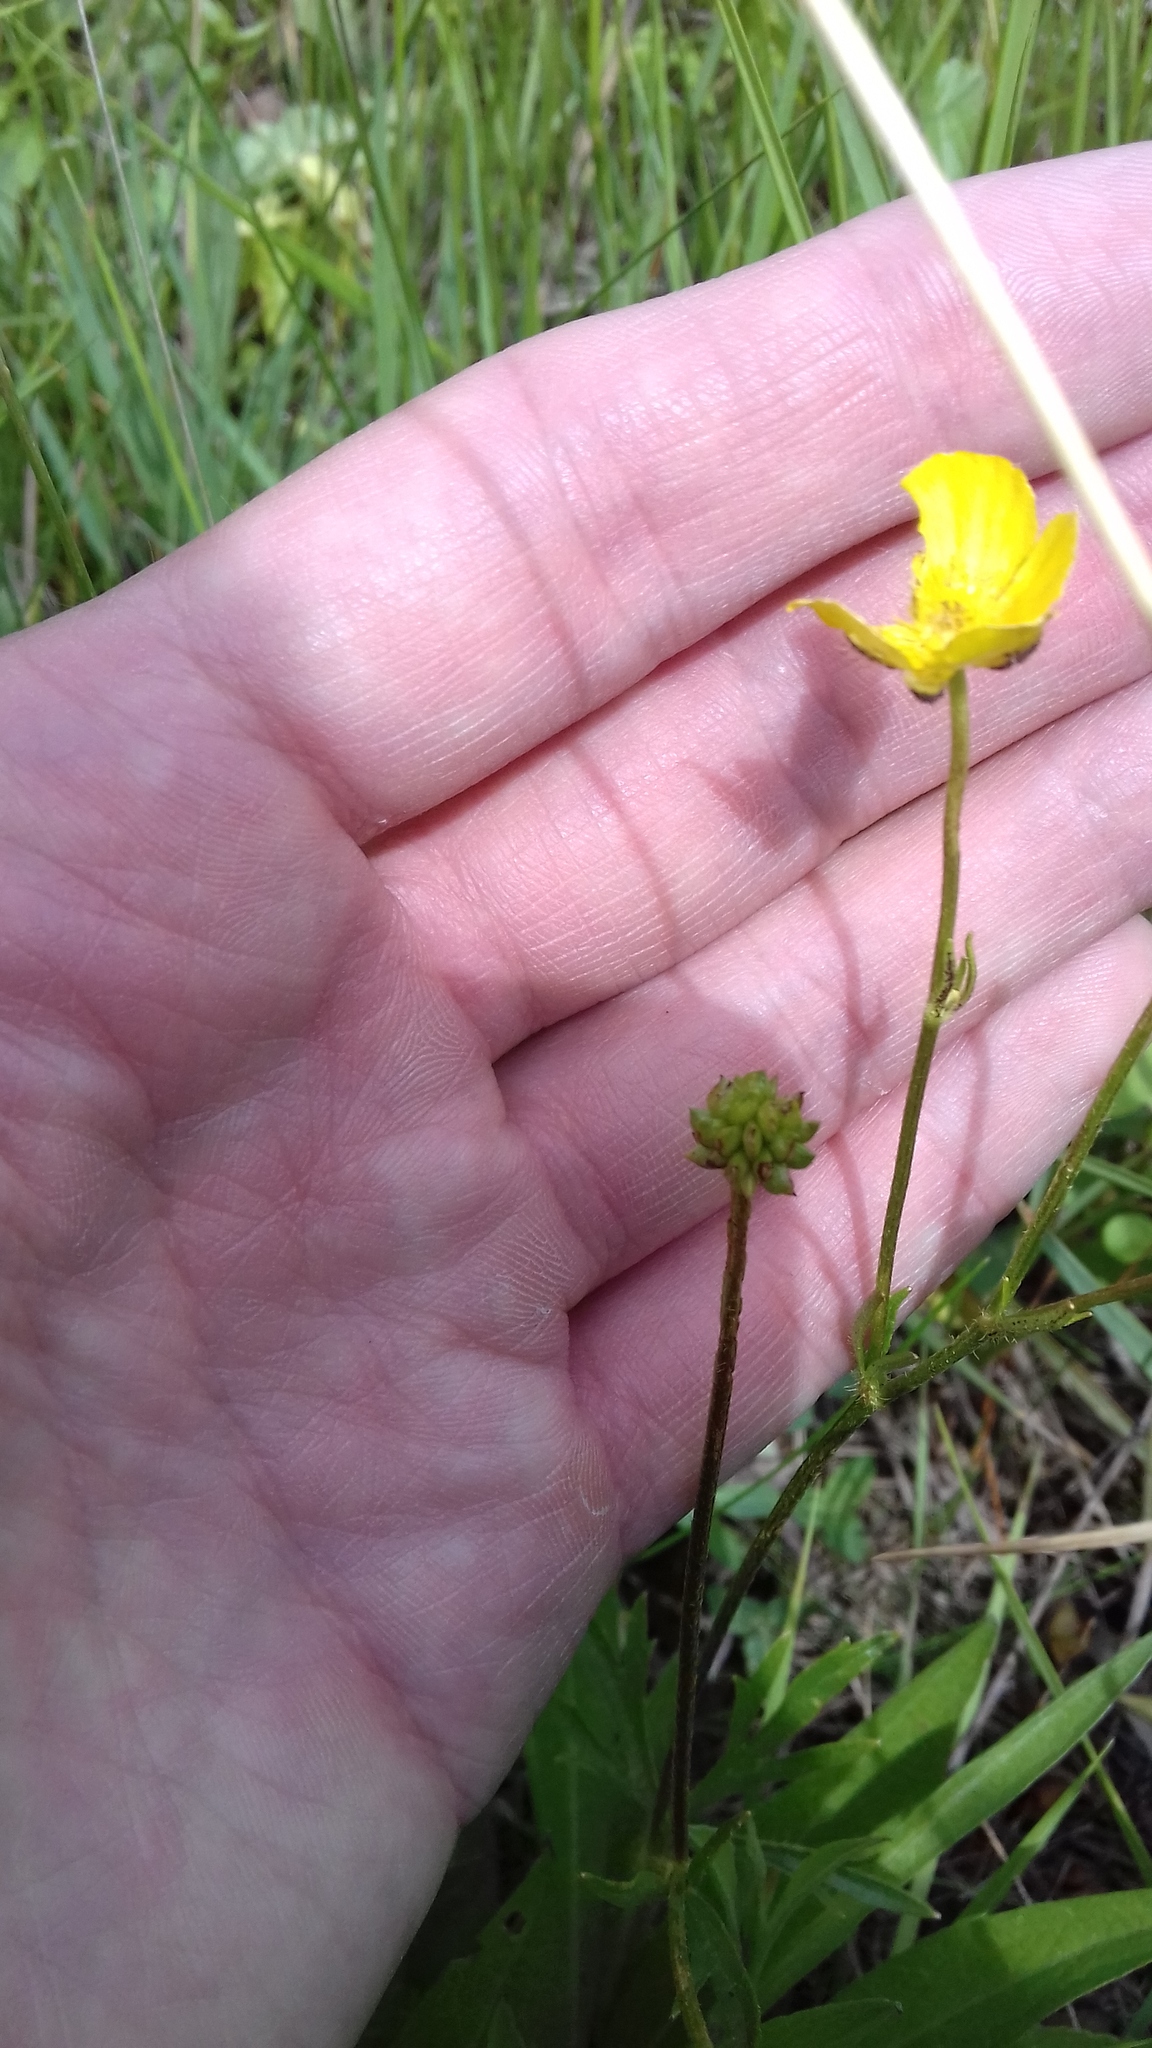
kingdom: Plantae
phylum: Tracheophyta
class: Magnoliopsida
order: Ranunculales
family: Ranunculaceae
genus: Ranunculus
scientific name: Ranunculus polyanthemos
